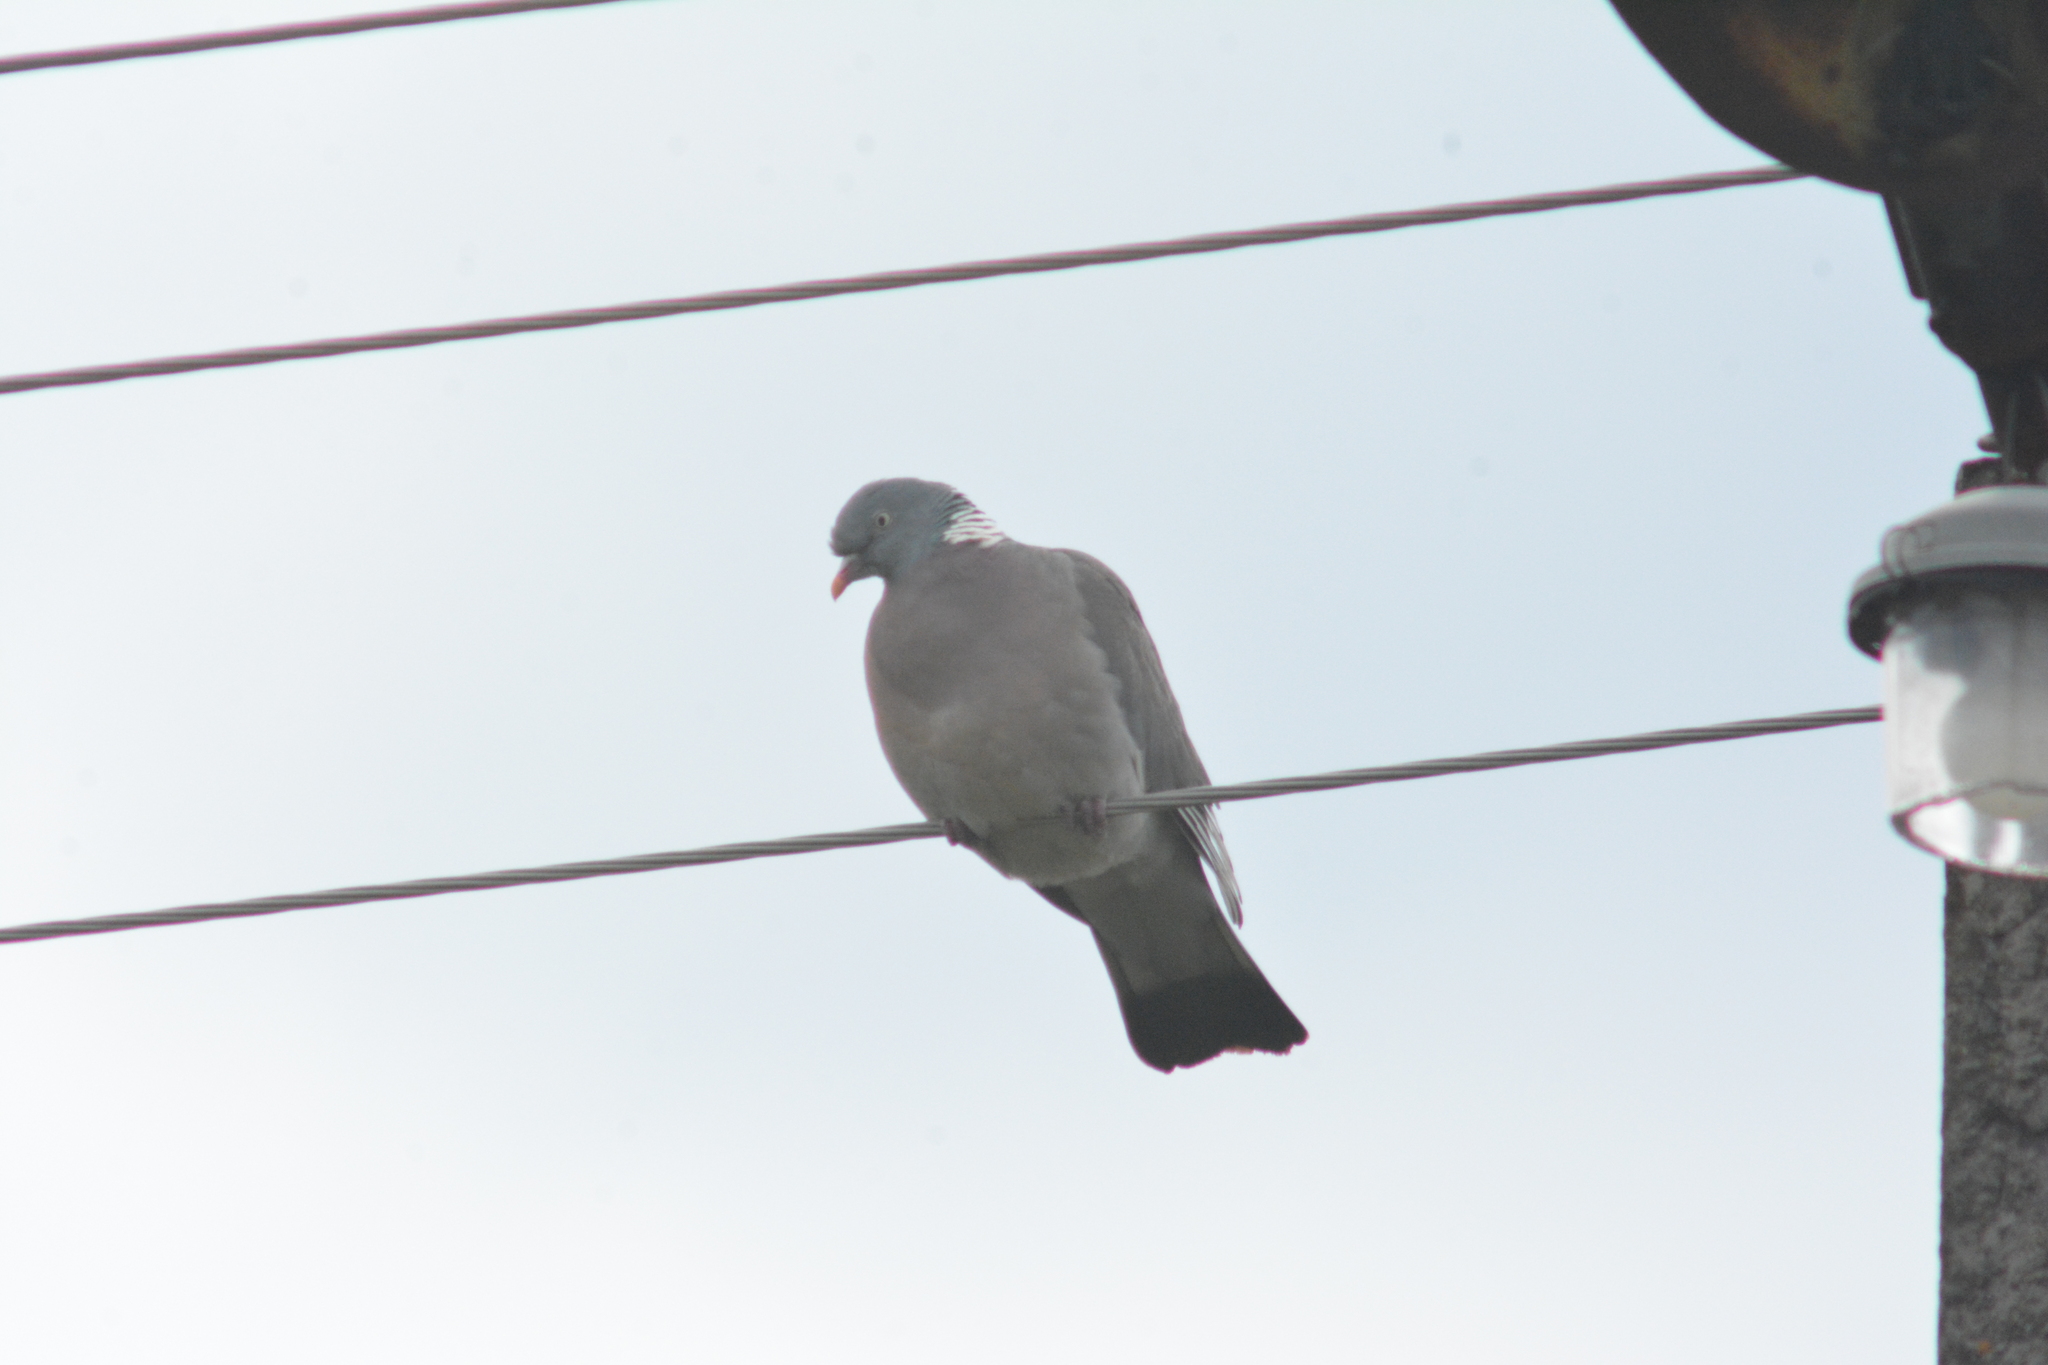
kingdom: Animalia
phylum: Chordata
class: Aves
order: Columbiformes
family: Columbidae
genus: Columba
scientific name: Columba palumbus
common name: Common wood pigeon
